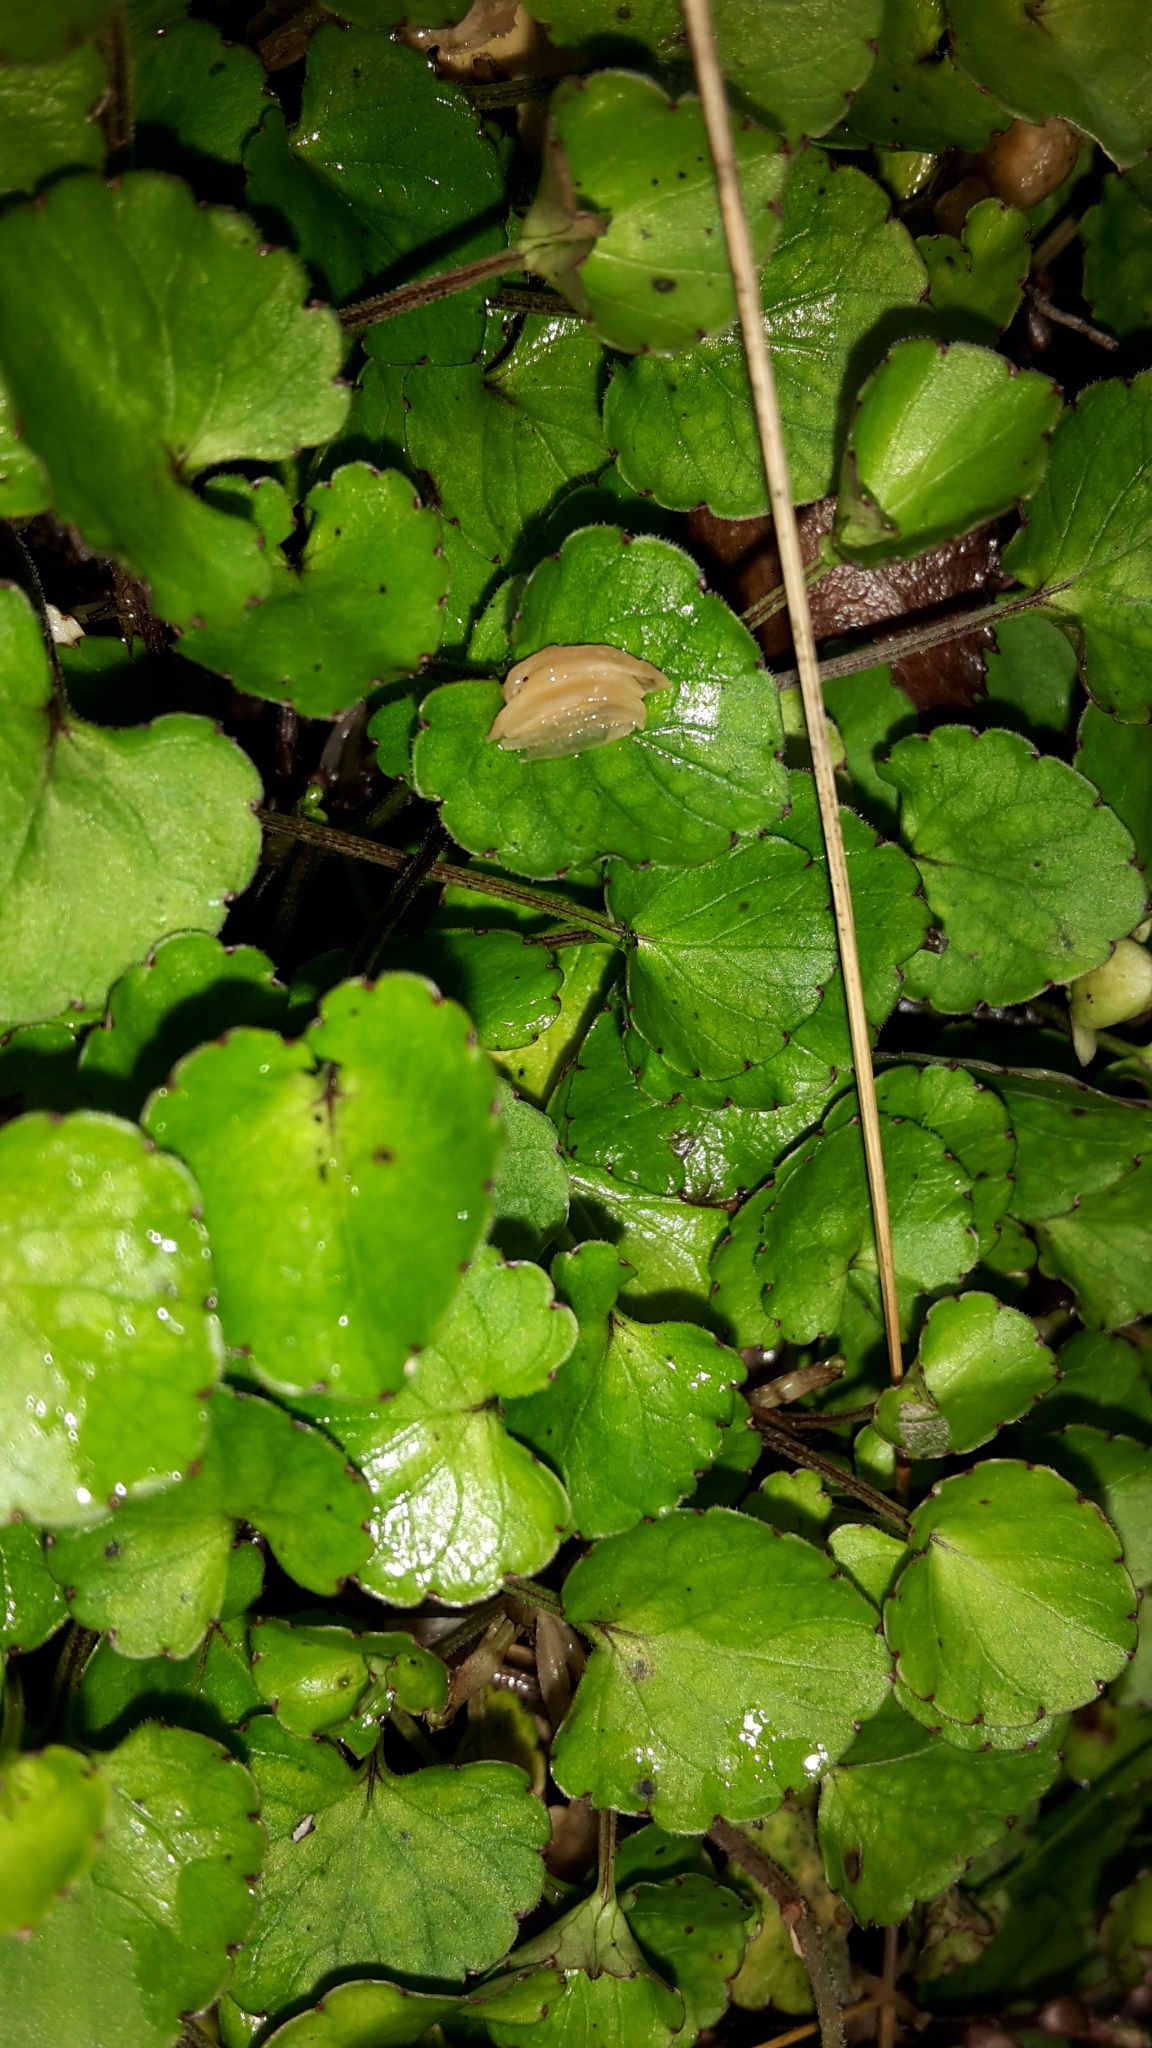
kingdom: Plantae
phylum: Tracheophyta
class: Magnoliopsida
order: Malpighiales
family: Violaceae
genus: Viola
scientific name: Viola filicaulis
